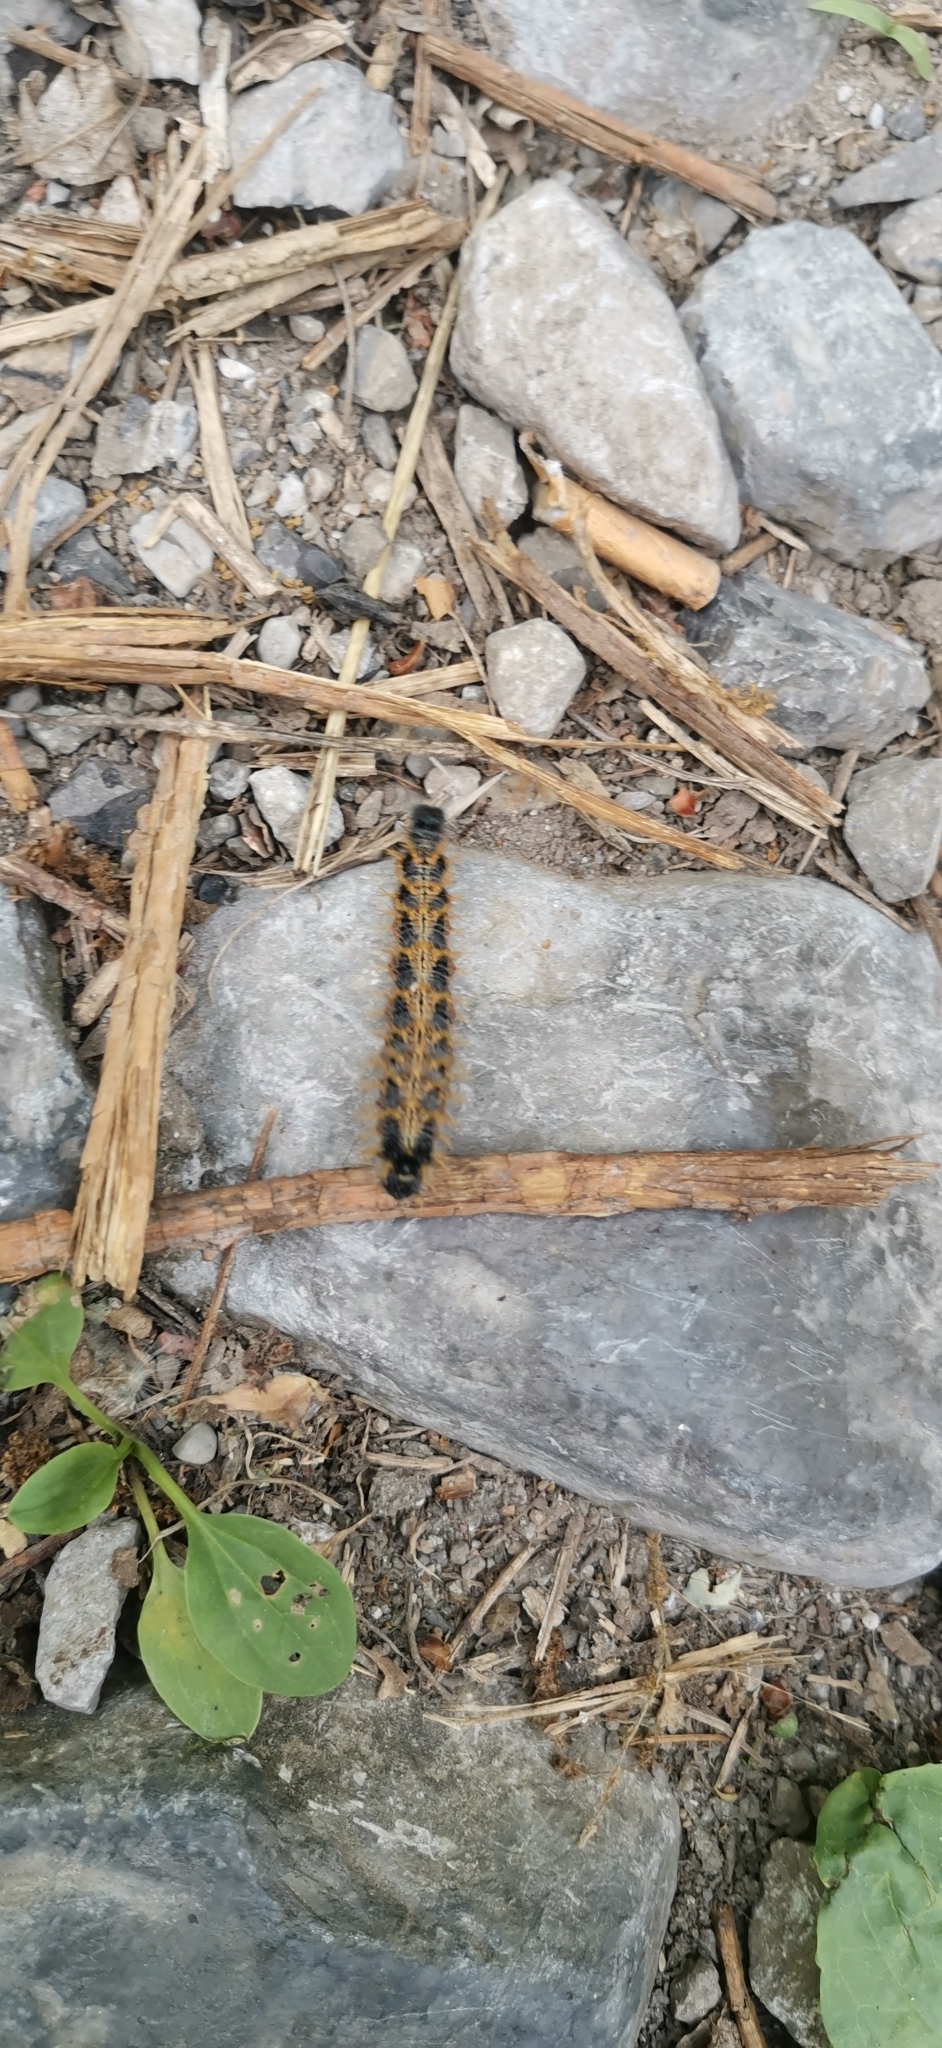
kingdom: Animalia
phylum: Arthropoda
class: Insecta
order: Lepidoptera
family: Nymphalidae
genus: Nymphalis
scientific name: Nymphalis polychloros
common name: Large tortoiseshell
